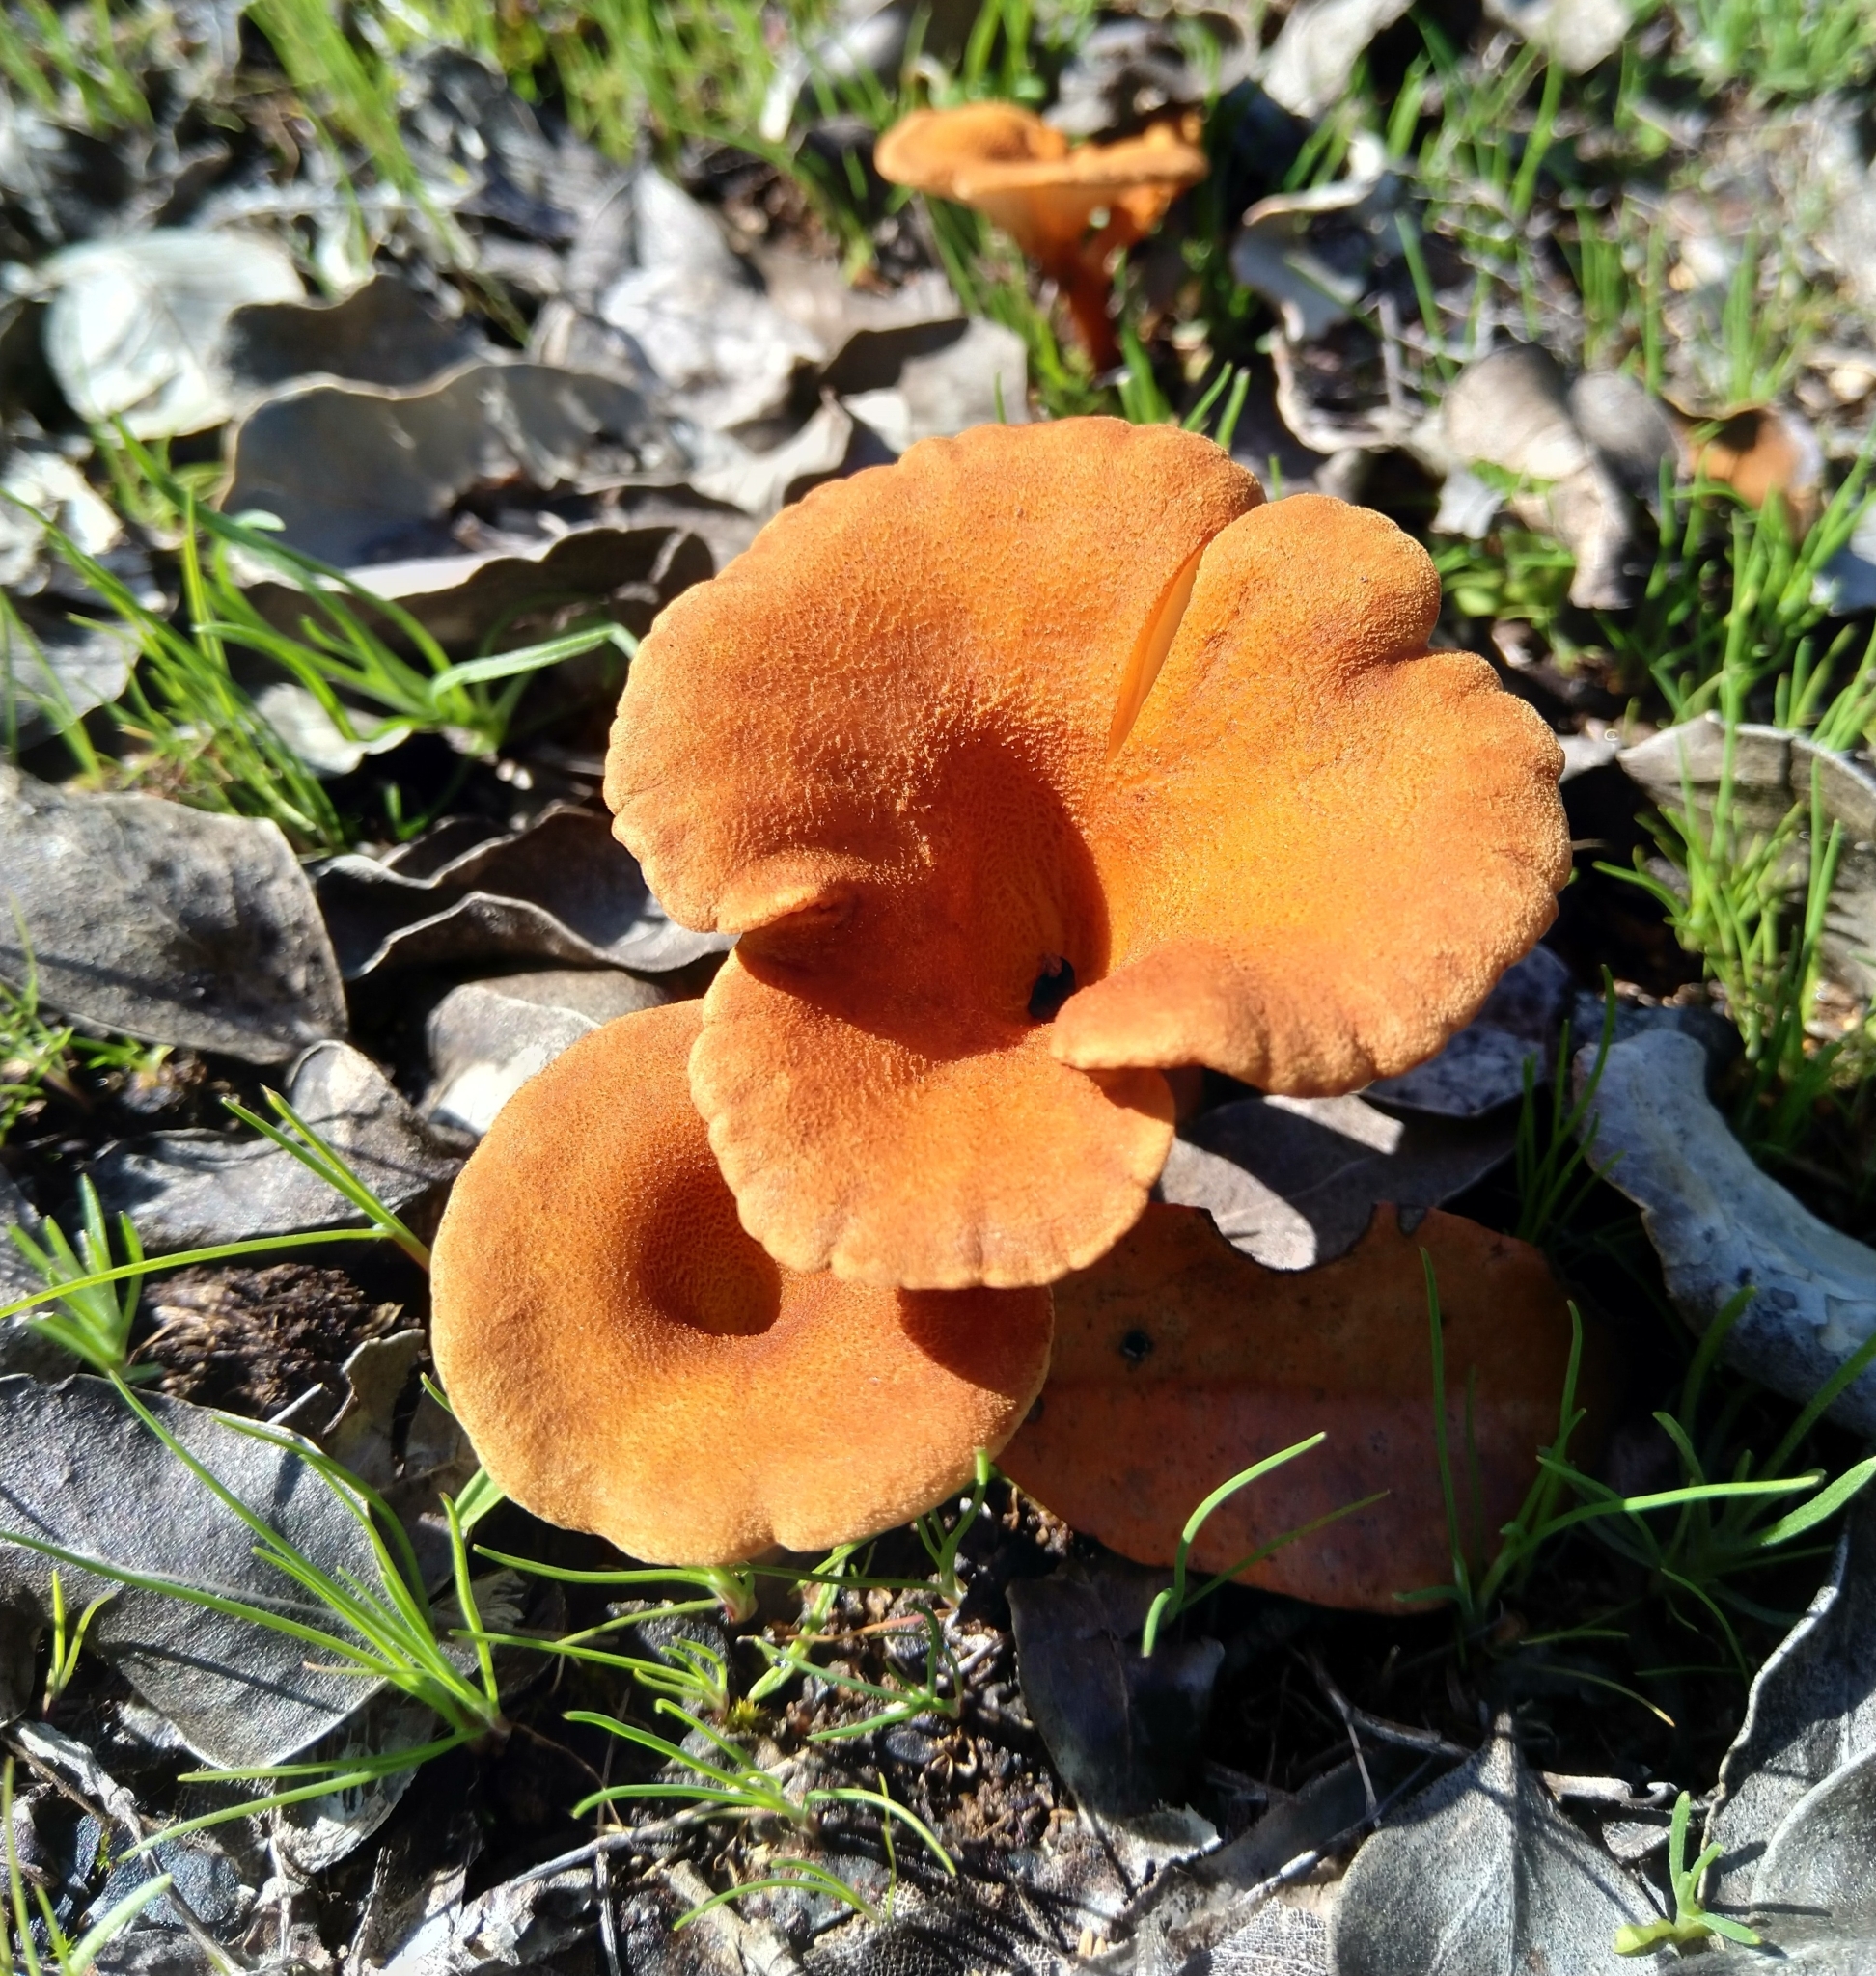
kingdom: Fungi
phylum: Basidiomycota
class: Agaricomycetes
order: Agaricales
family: Tricholomataceae
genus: Melanomphalia
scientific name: Melanomphalia omphaliopsis
